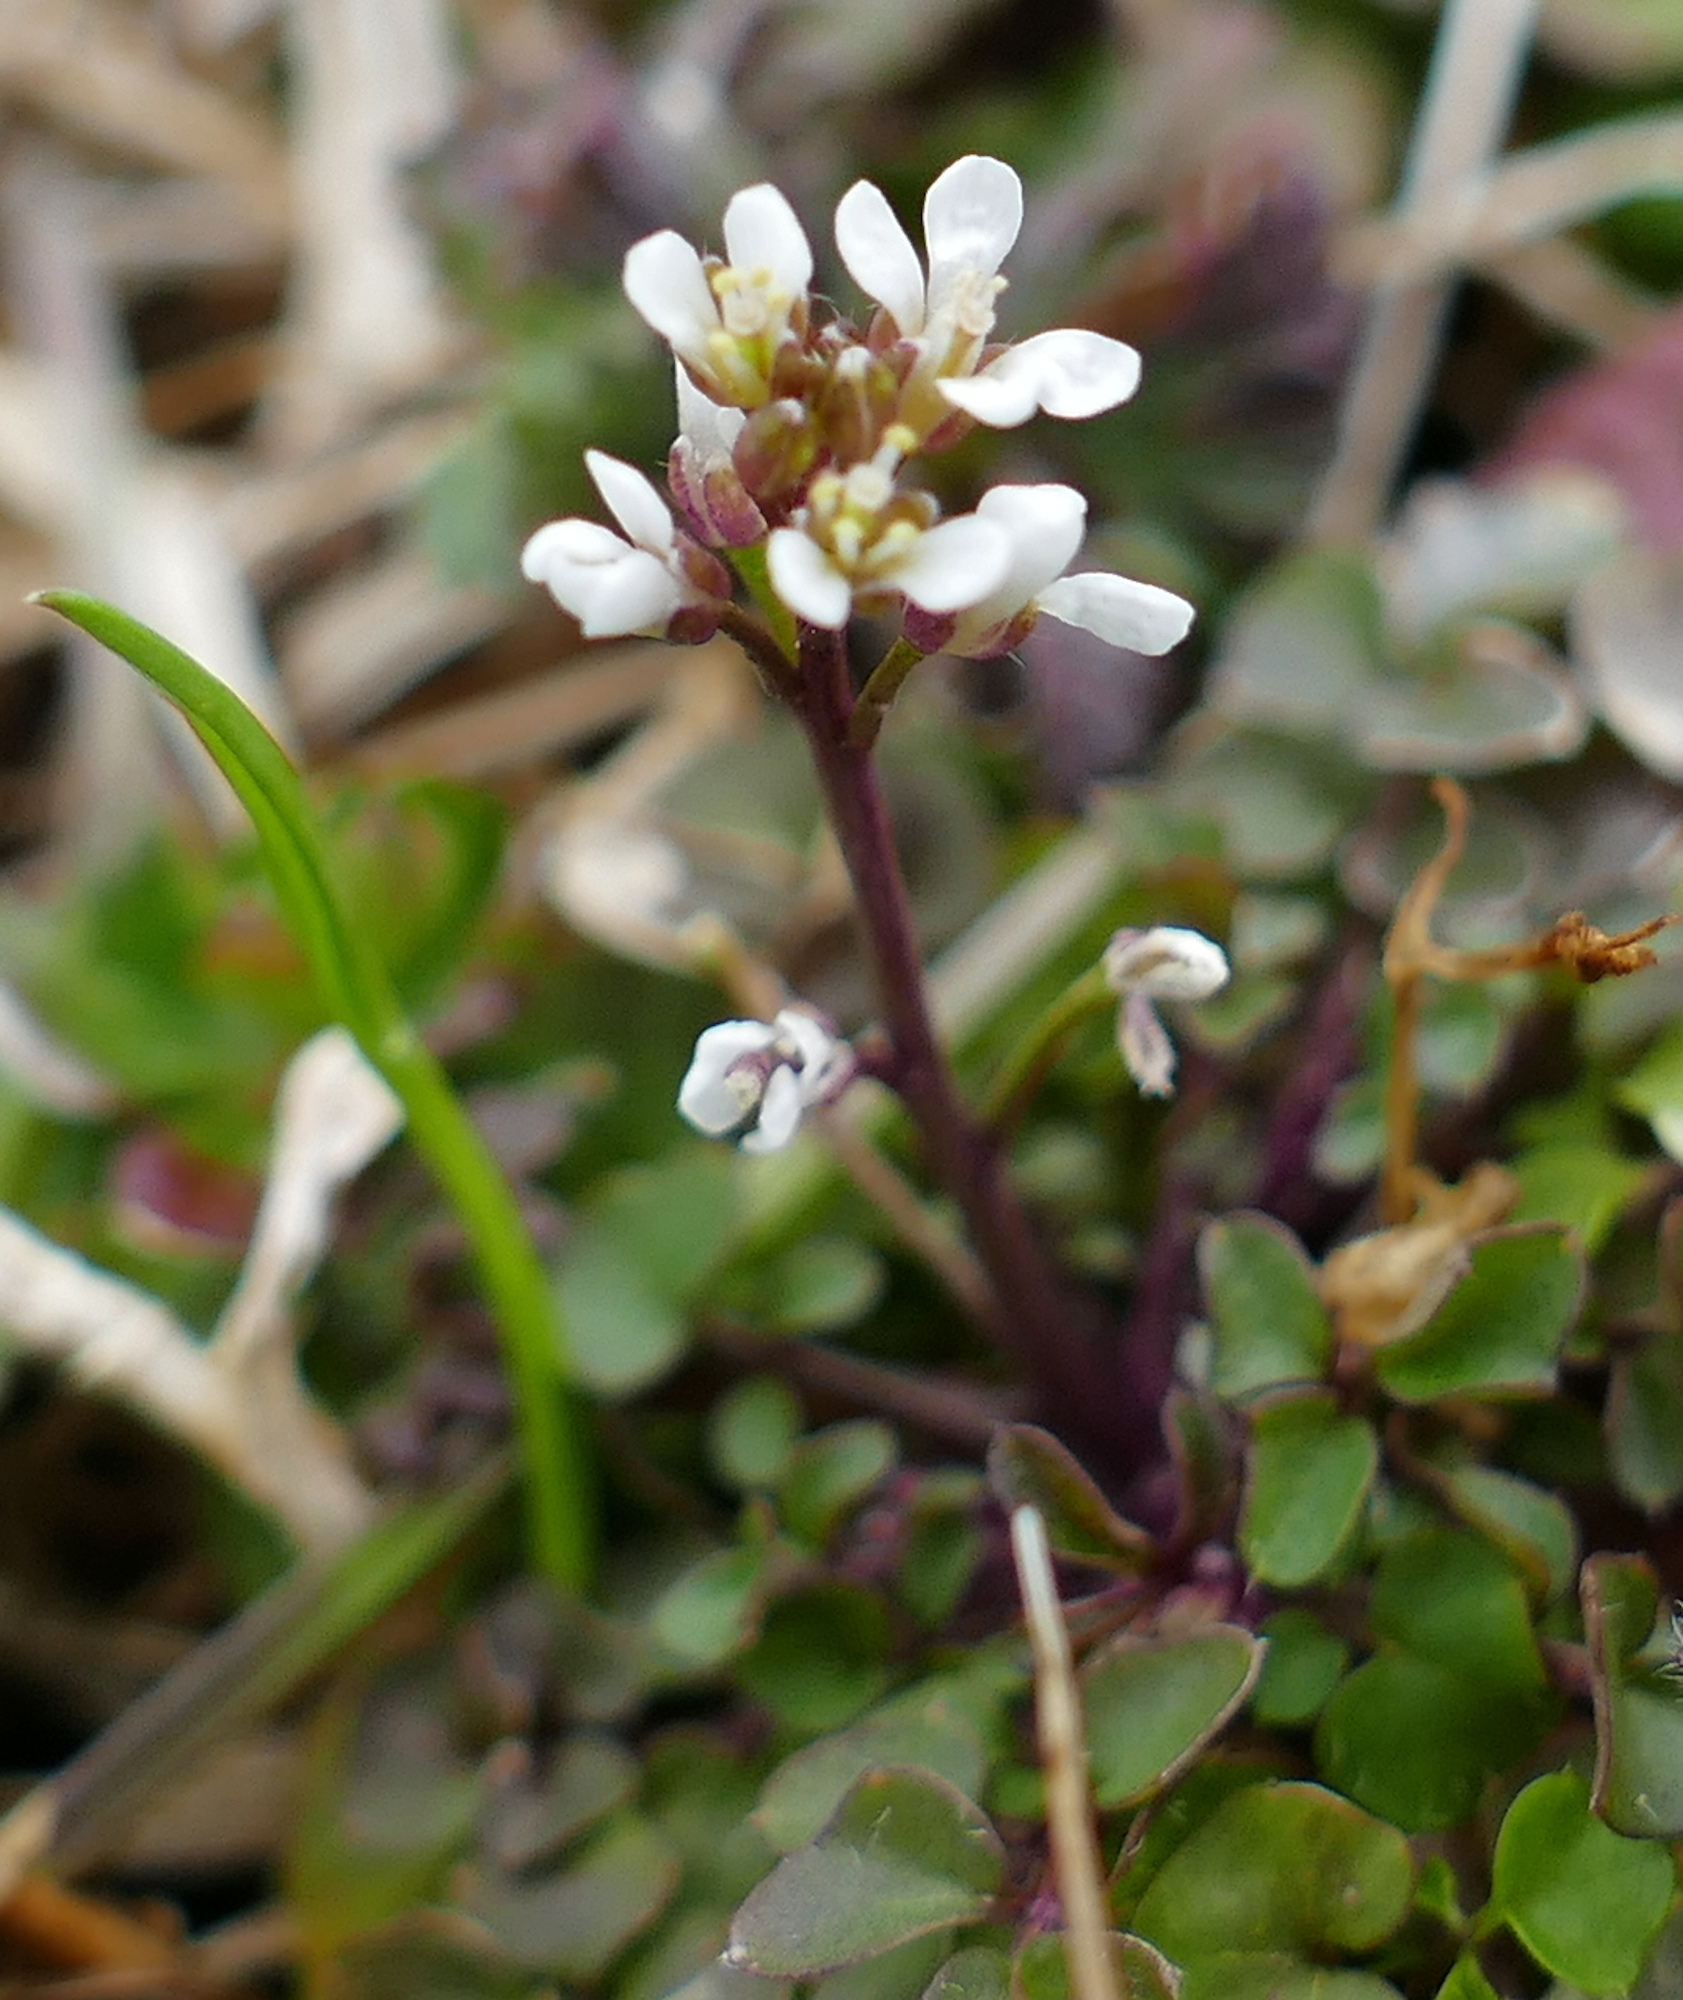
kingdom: Plantae
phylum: Tracheophyta
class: Magnoliopsida
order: Brassicales
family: Brassicaceae
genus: Cardamine
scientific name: Cardamine hirsuta
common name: Hairy bittercress
